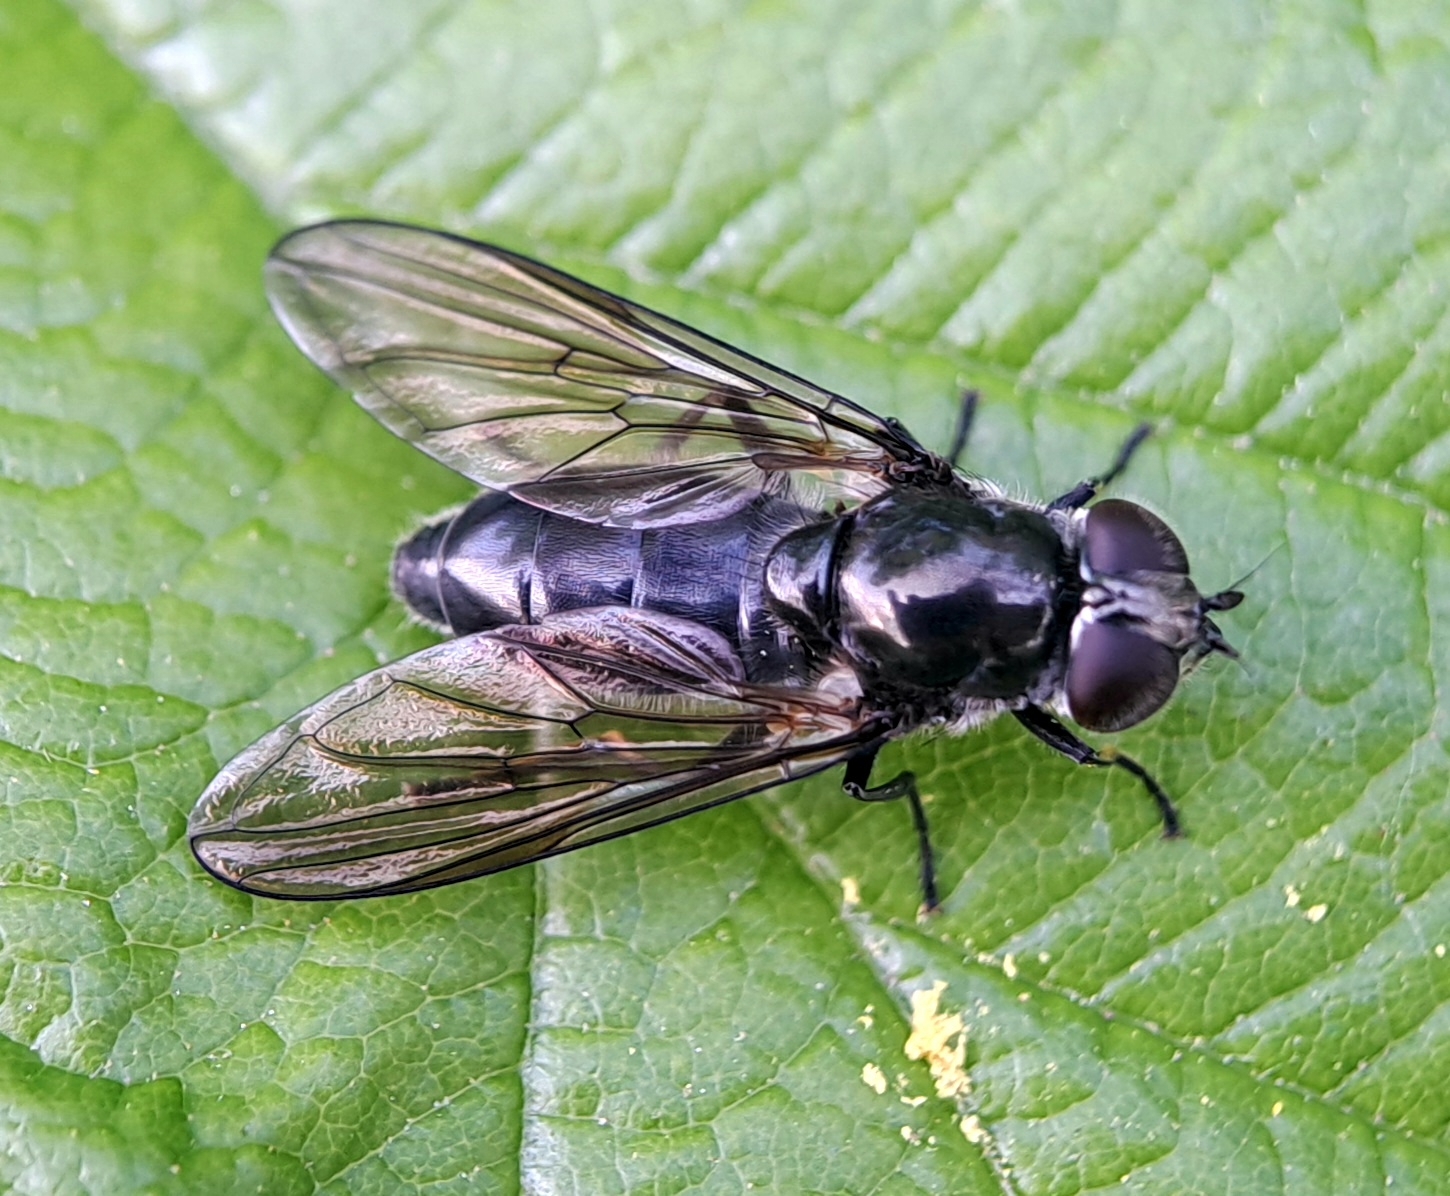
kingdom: Animalia
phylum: Arthropoda
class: Insecta
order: Diptera
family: Syrphidae
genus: Cheilosia
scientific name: Cheilosia variabilis
